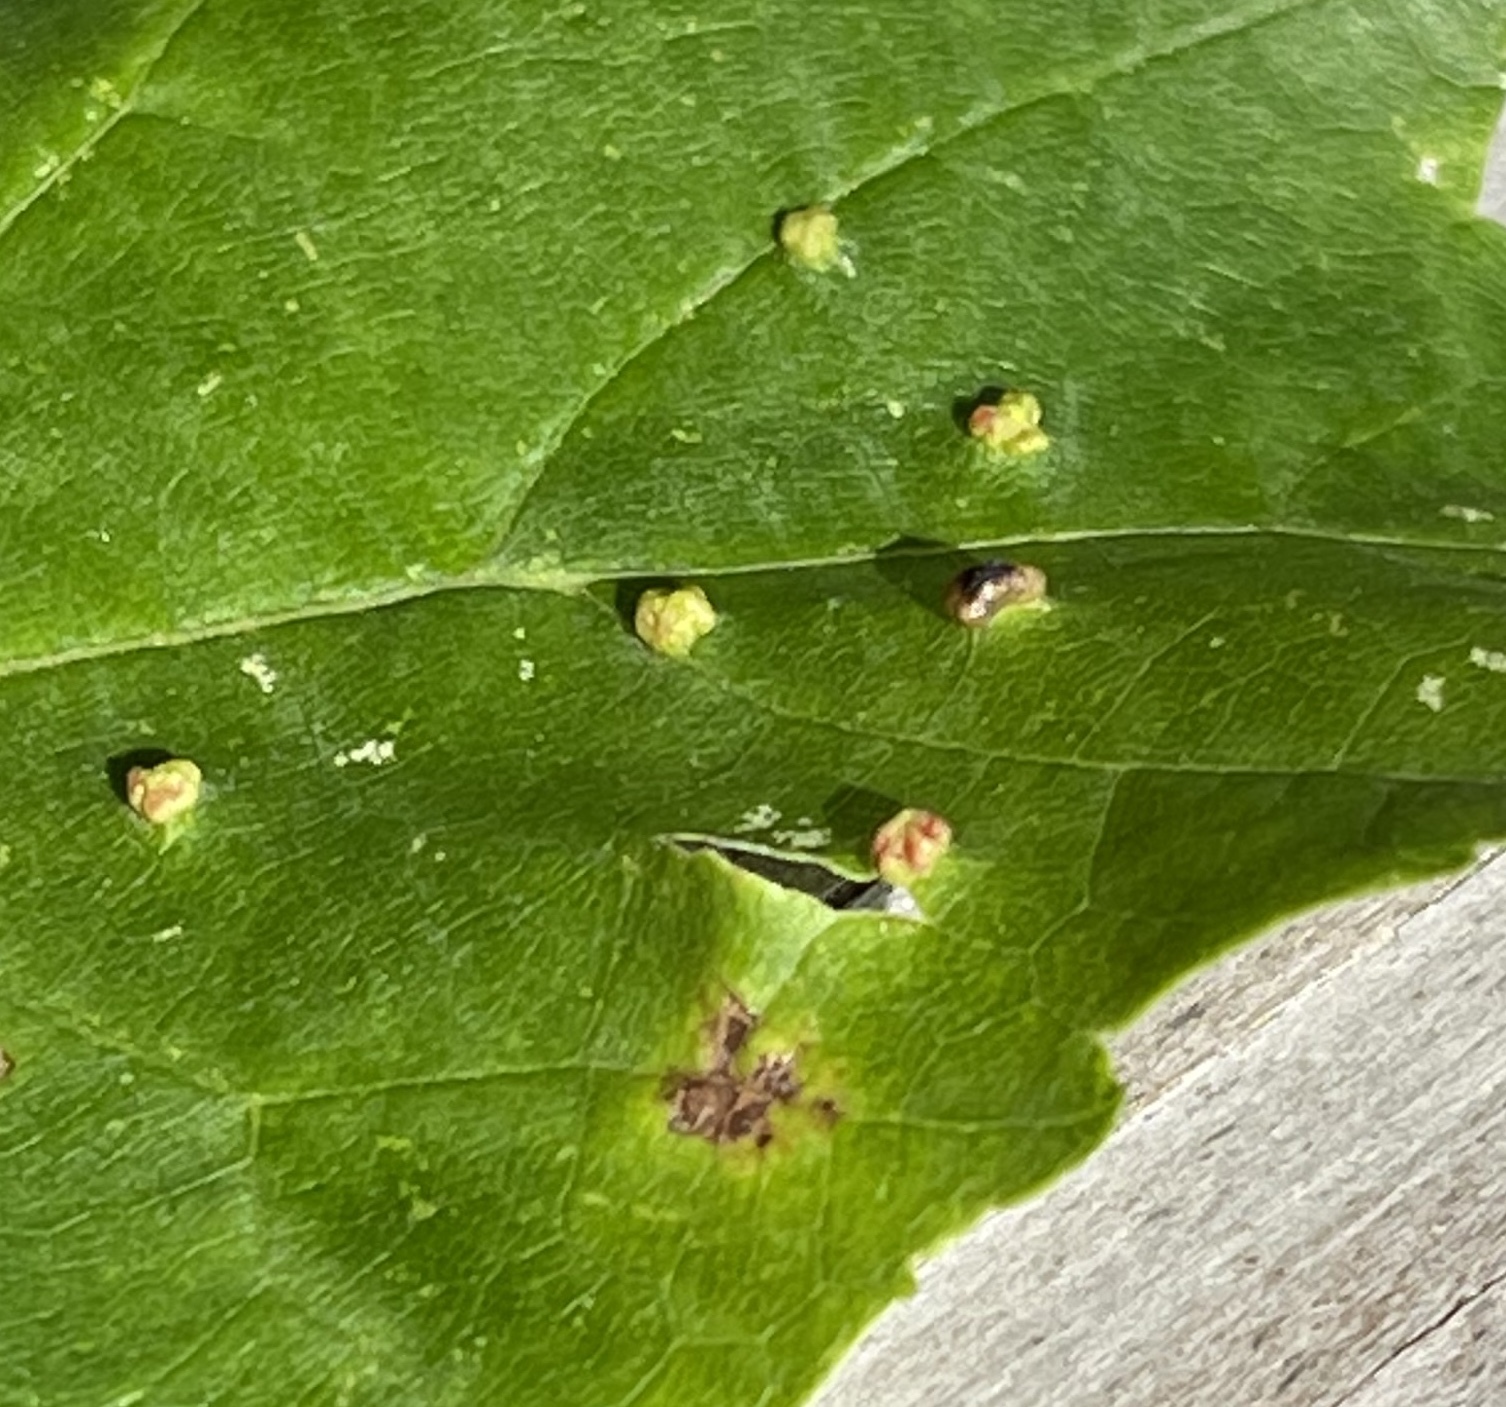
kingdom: Animalia
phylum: Arthropoda
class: Arachnida
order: Trombidiformes
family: Eriophyidae
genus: Vasates
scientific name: Vasates quadripedes
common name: Maple bladder gall mite
